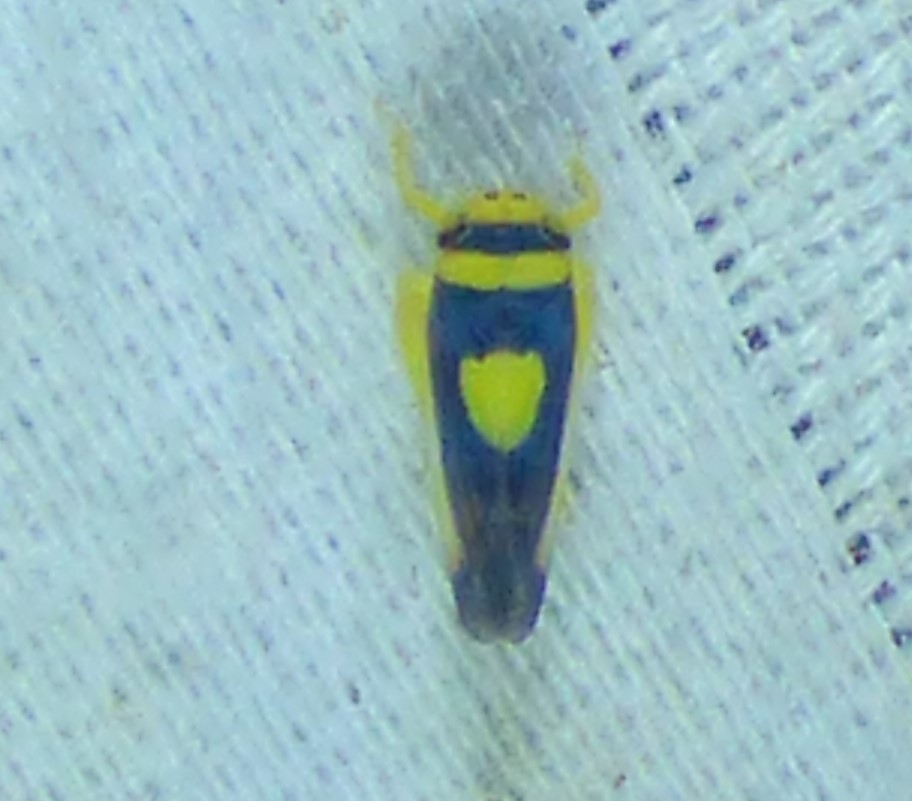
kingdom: Animalia
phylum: Arthropoda
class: Insecta
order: Hemiptera
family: Cicadellidae
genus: Colladonus
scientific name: Colladonus clitellarius
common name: The saddleback leafhopper
